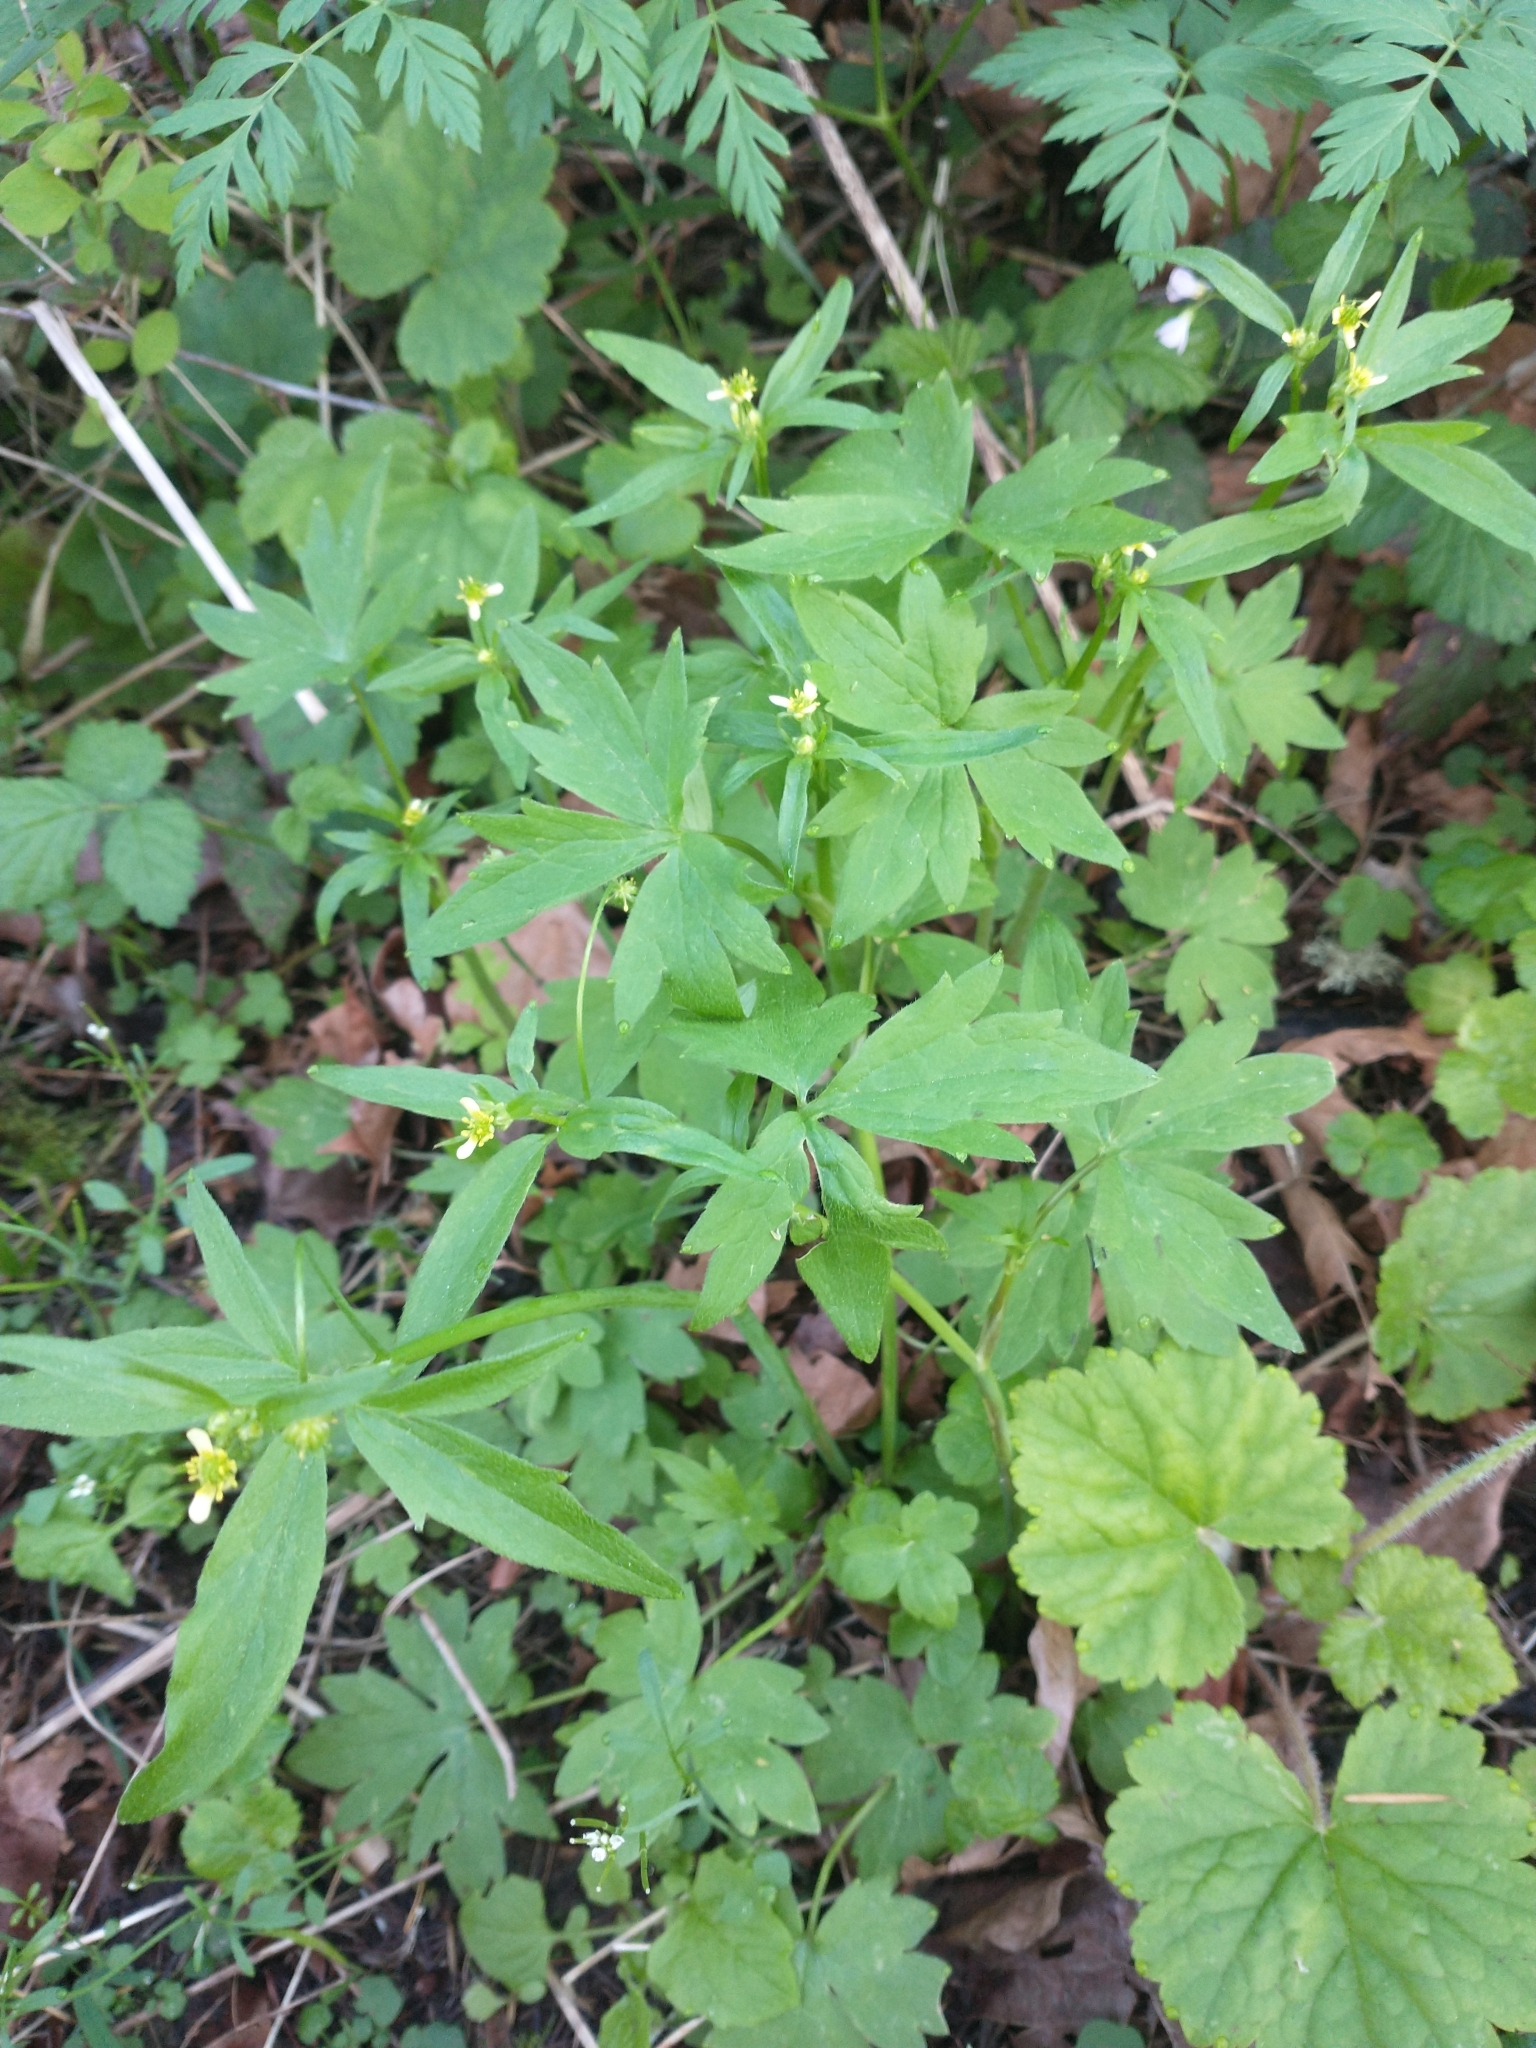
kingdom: Plantae
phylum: Tracheophyta
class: Magnoliopsida
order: Ranunculales
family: Ranunculaceae
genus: Ranunculus
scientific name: Ranunculus uncinatus
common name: Little buttercup
